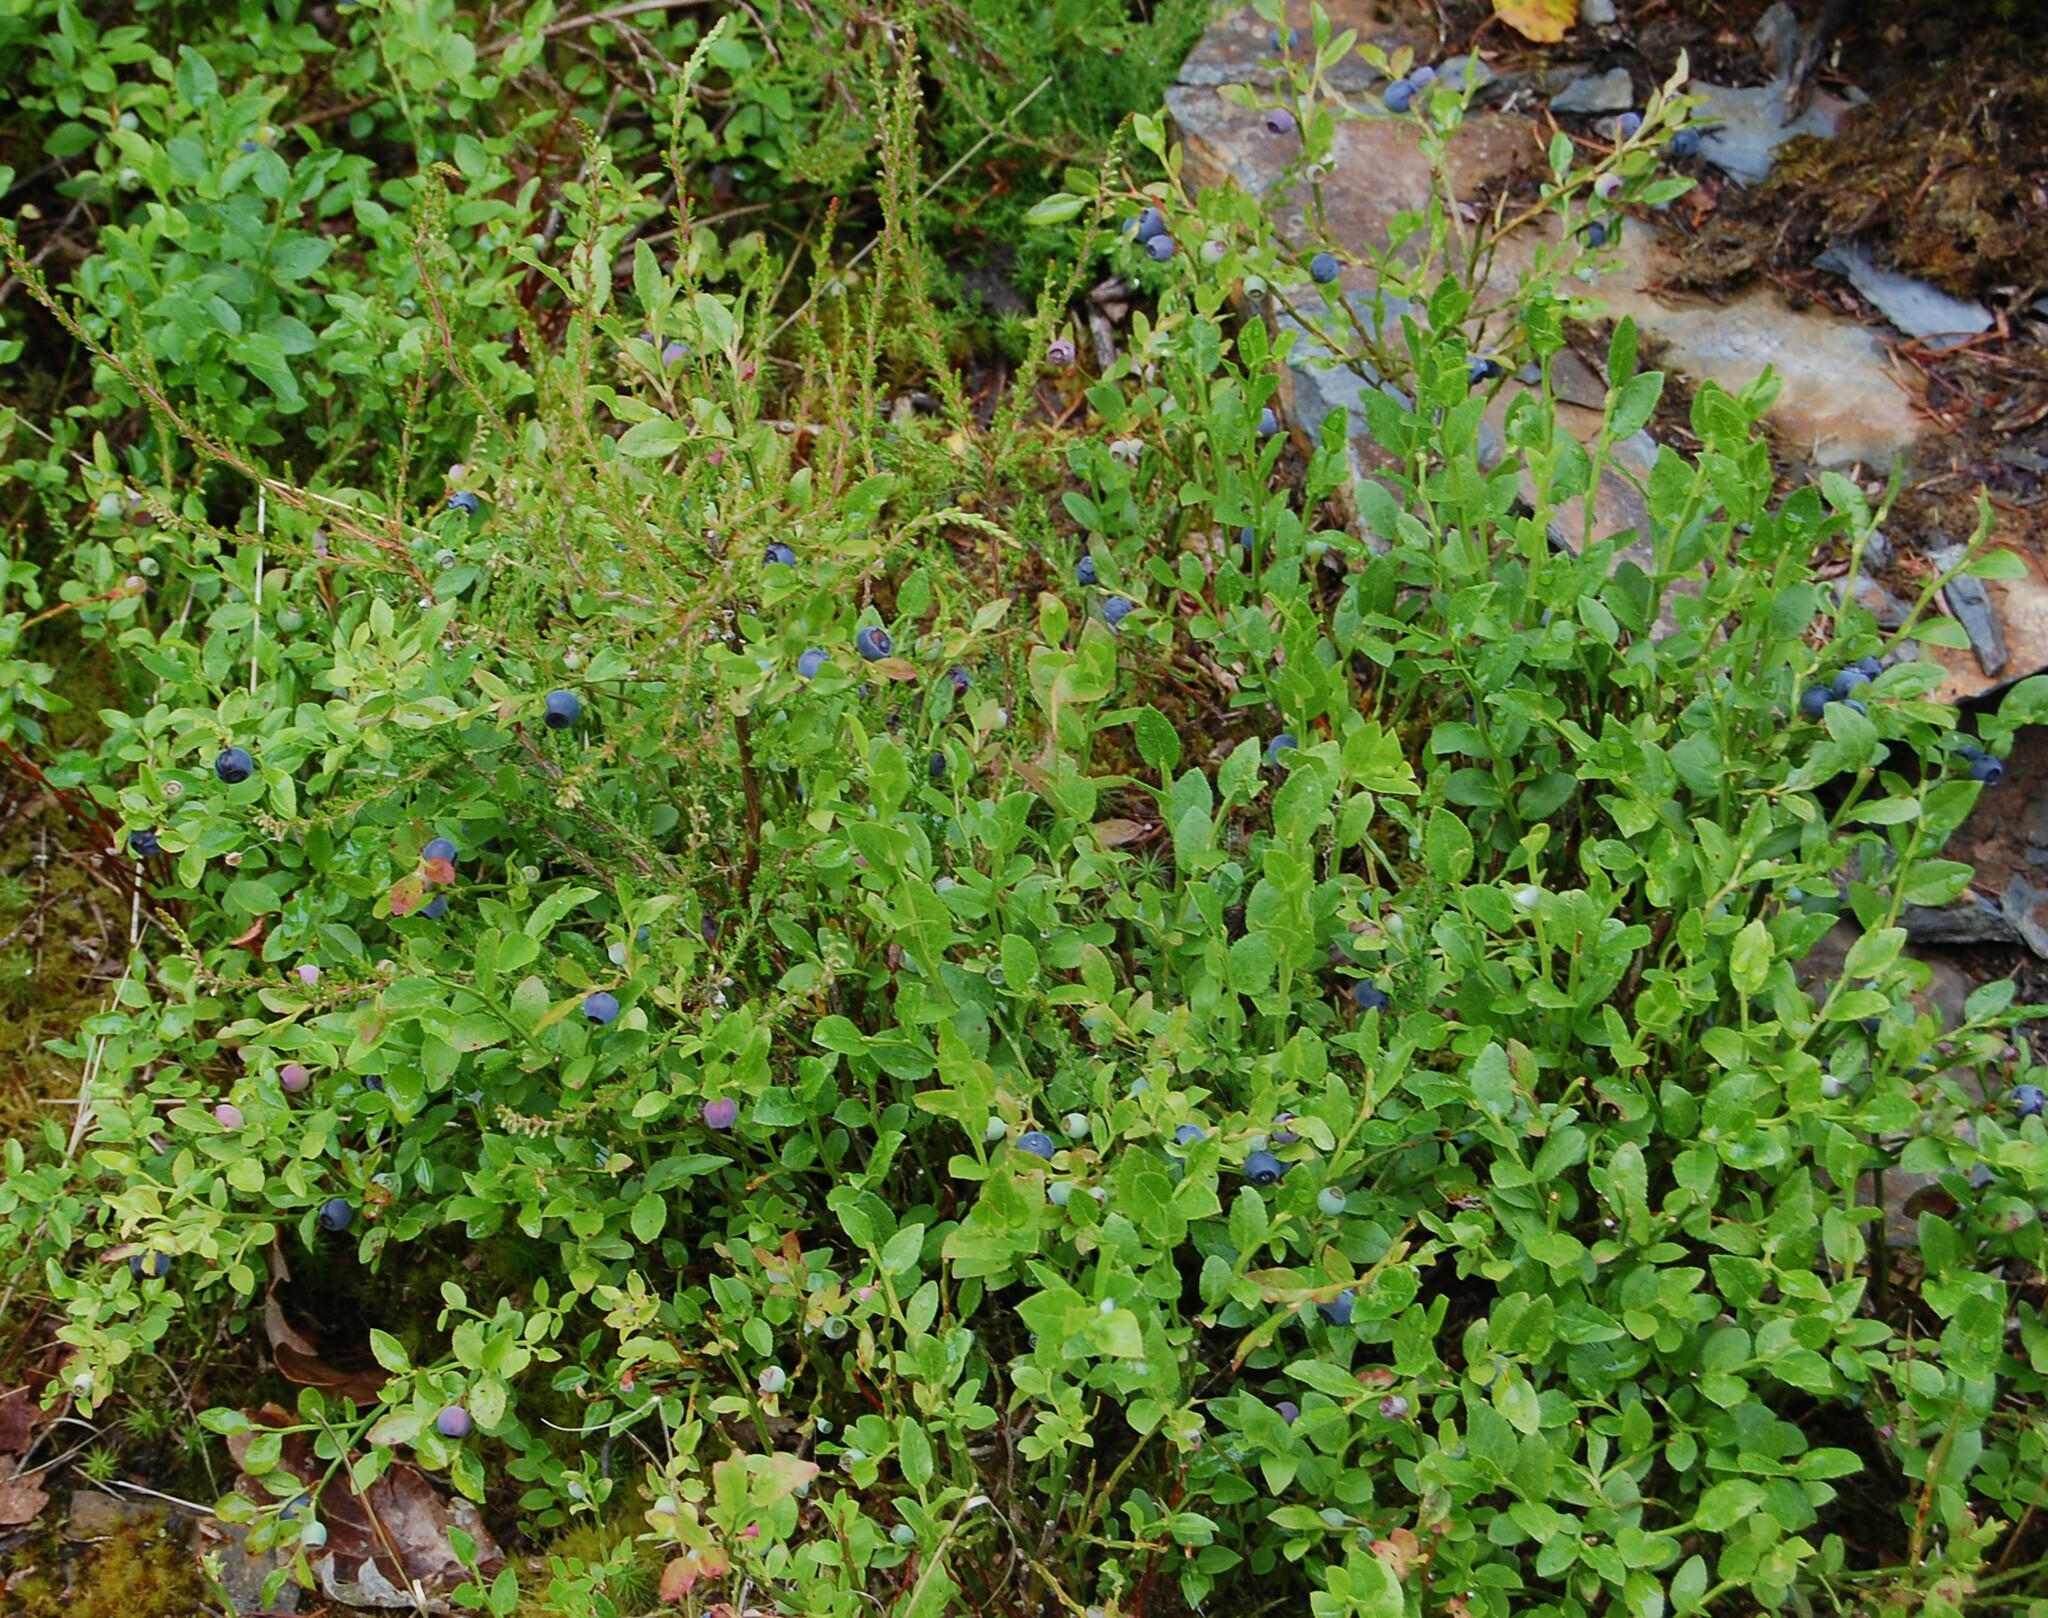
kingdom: Plantae
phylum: Tracheophyta
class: Magnoliopsida
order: Ericales
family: Ericaceae
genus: Vaccinium
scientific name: Vaccinium myrtillus
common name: Bilberry
